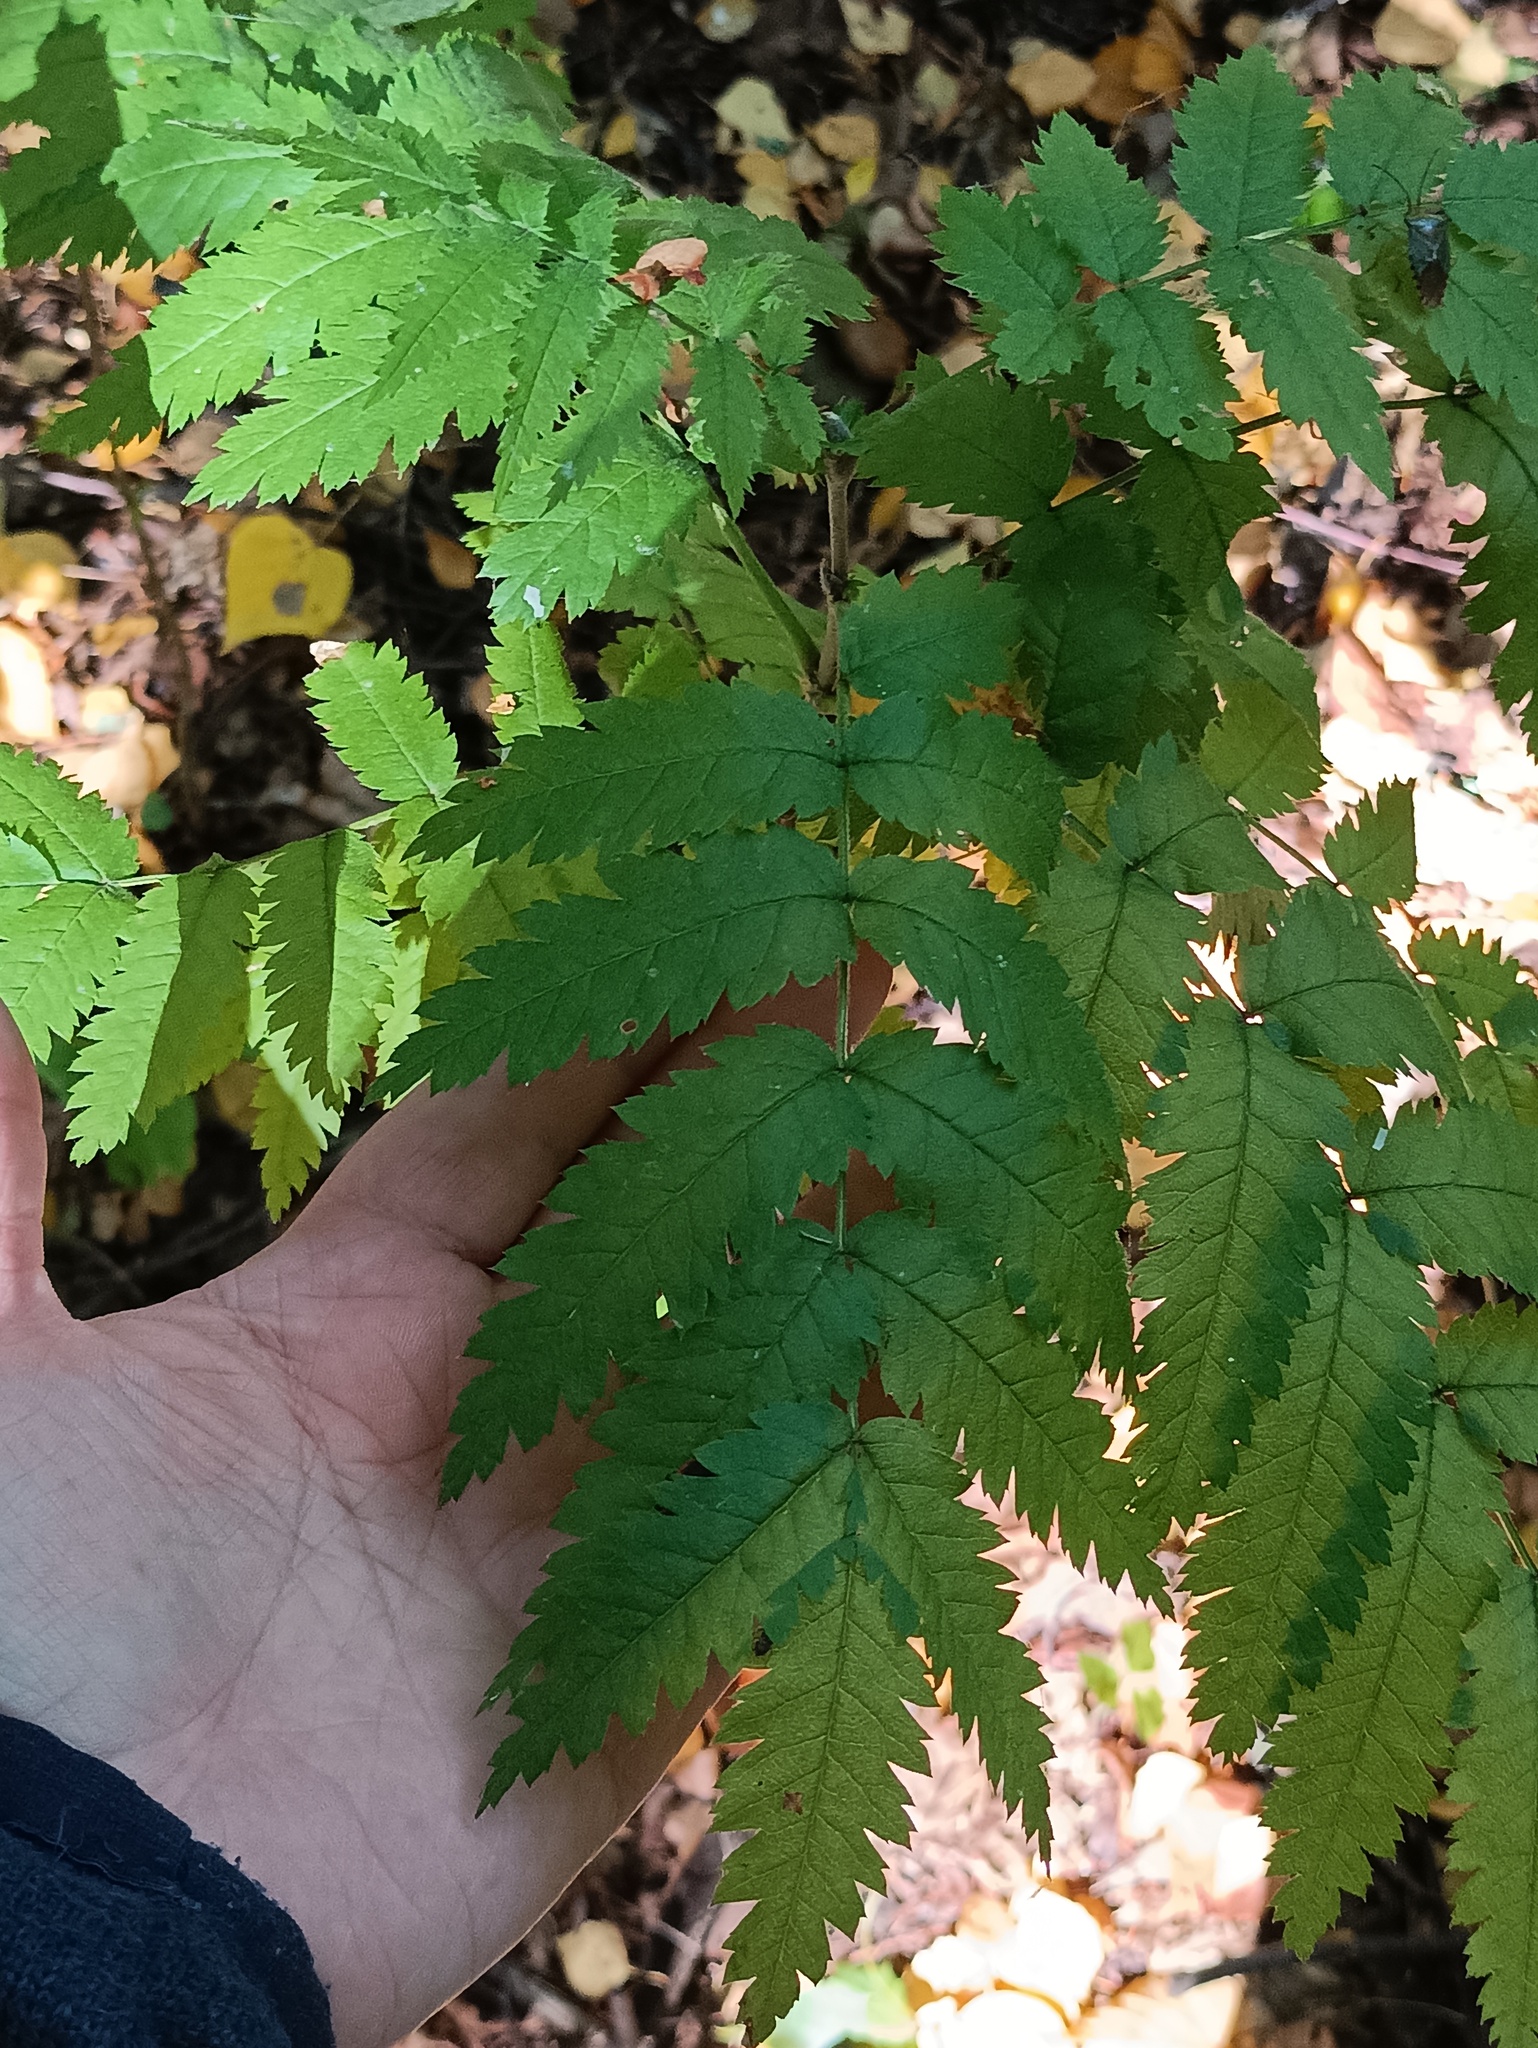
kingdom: Plantae
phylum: Tracheophyta
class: Magnoliopsida
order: Rosales
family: Rosaceae
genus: Sorbus
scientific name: Sorbus aucuparia
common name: Rowan
